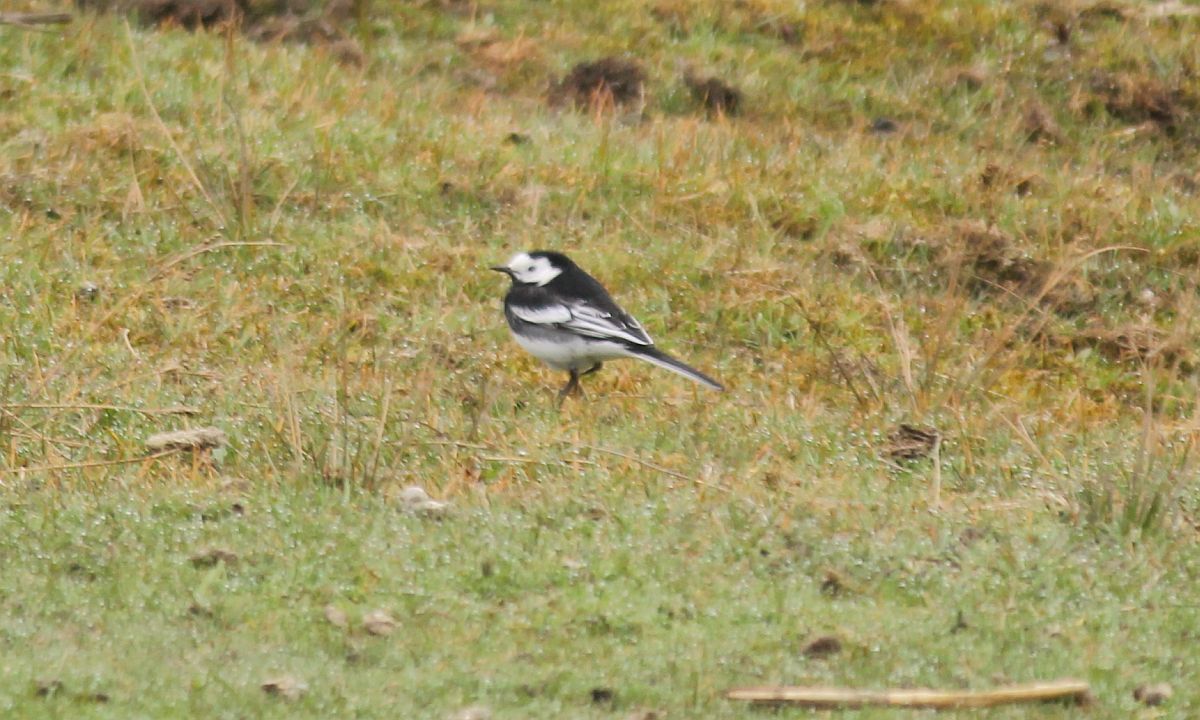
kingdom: Animalia
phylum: Chordata
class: Aves
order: Passeriformes
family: Motacillidae
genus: Motacilla
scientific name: Motacilla alba
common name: White wagtail
